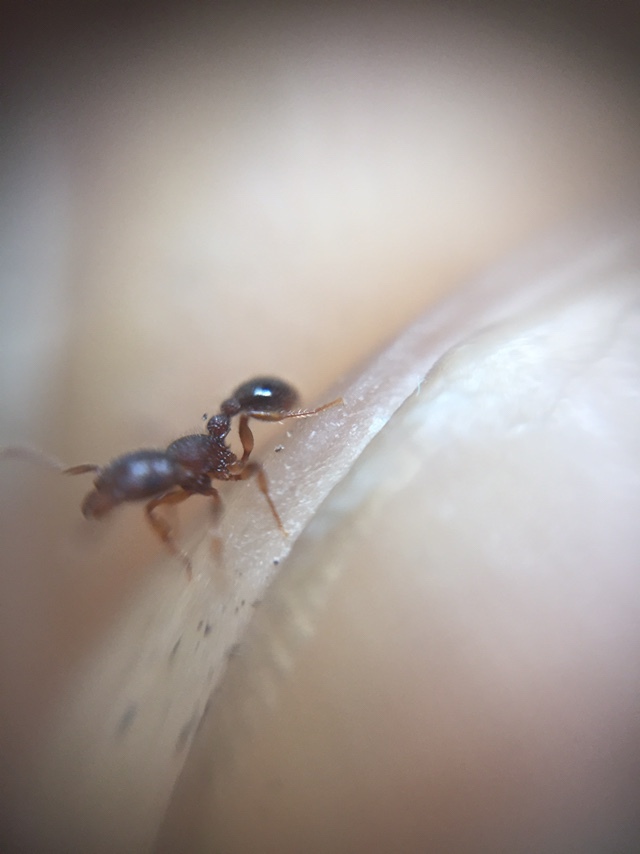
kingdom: Animalia
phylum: Arthropoda
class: Insecta
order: Hymenoptera
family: Formicidae
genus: Tetramorium
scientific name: Tetramorium lanuginosum
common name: Ant
